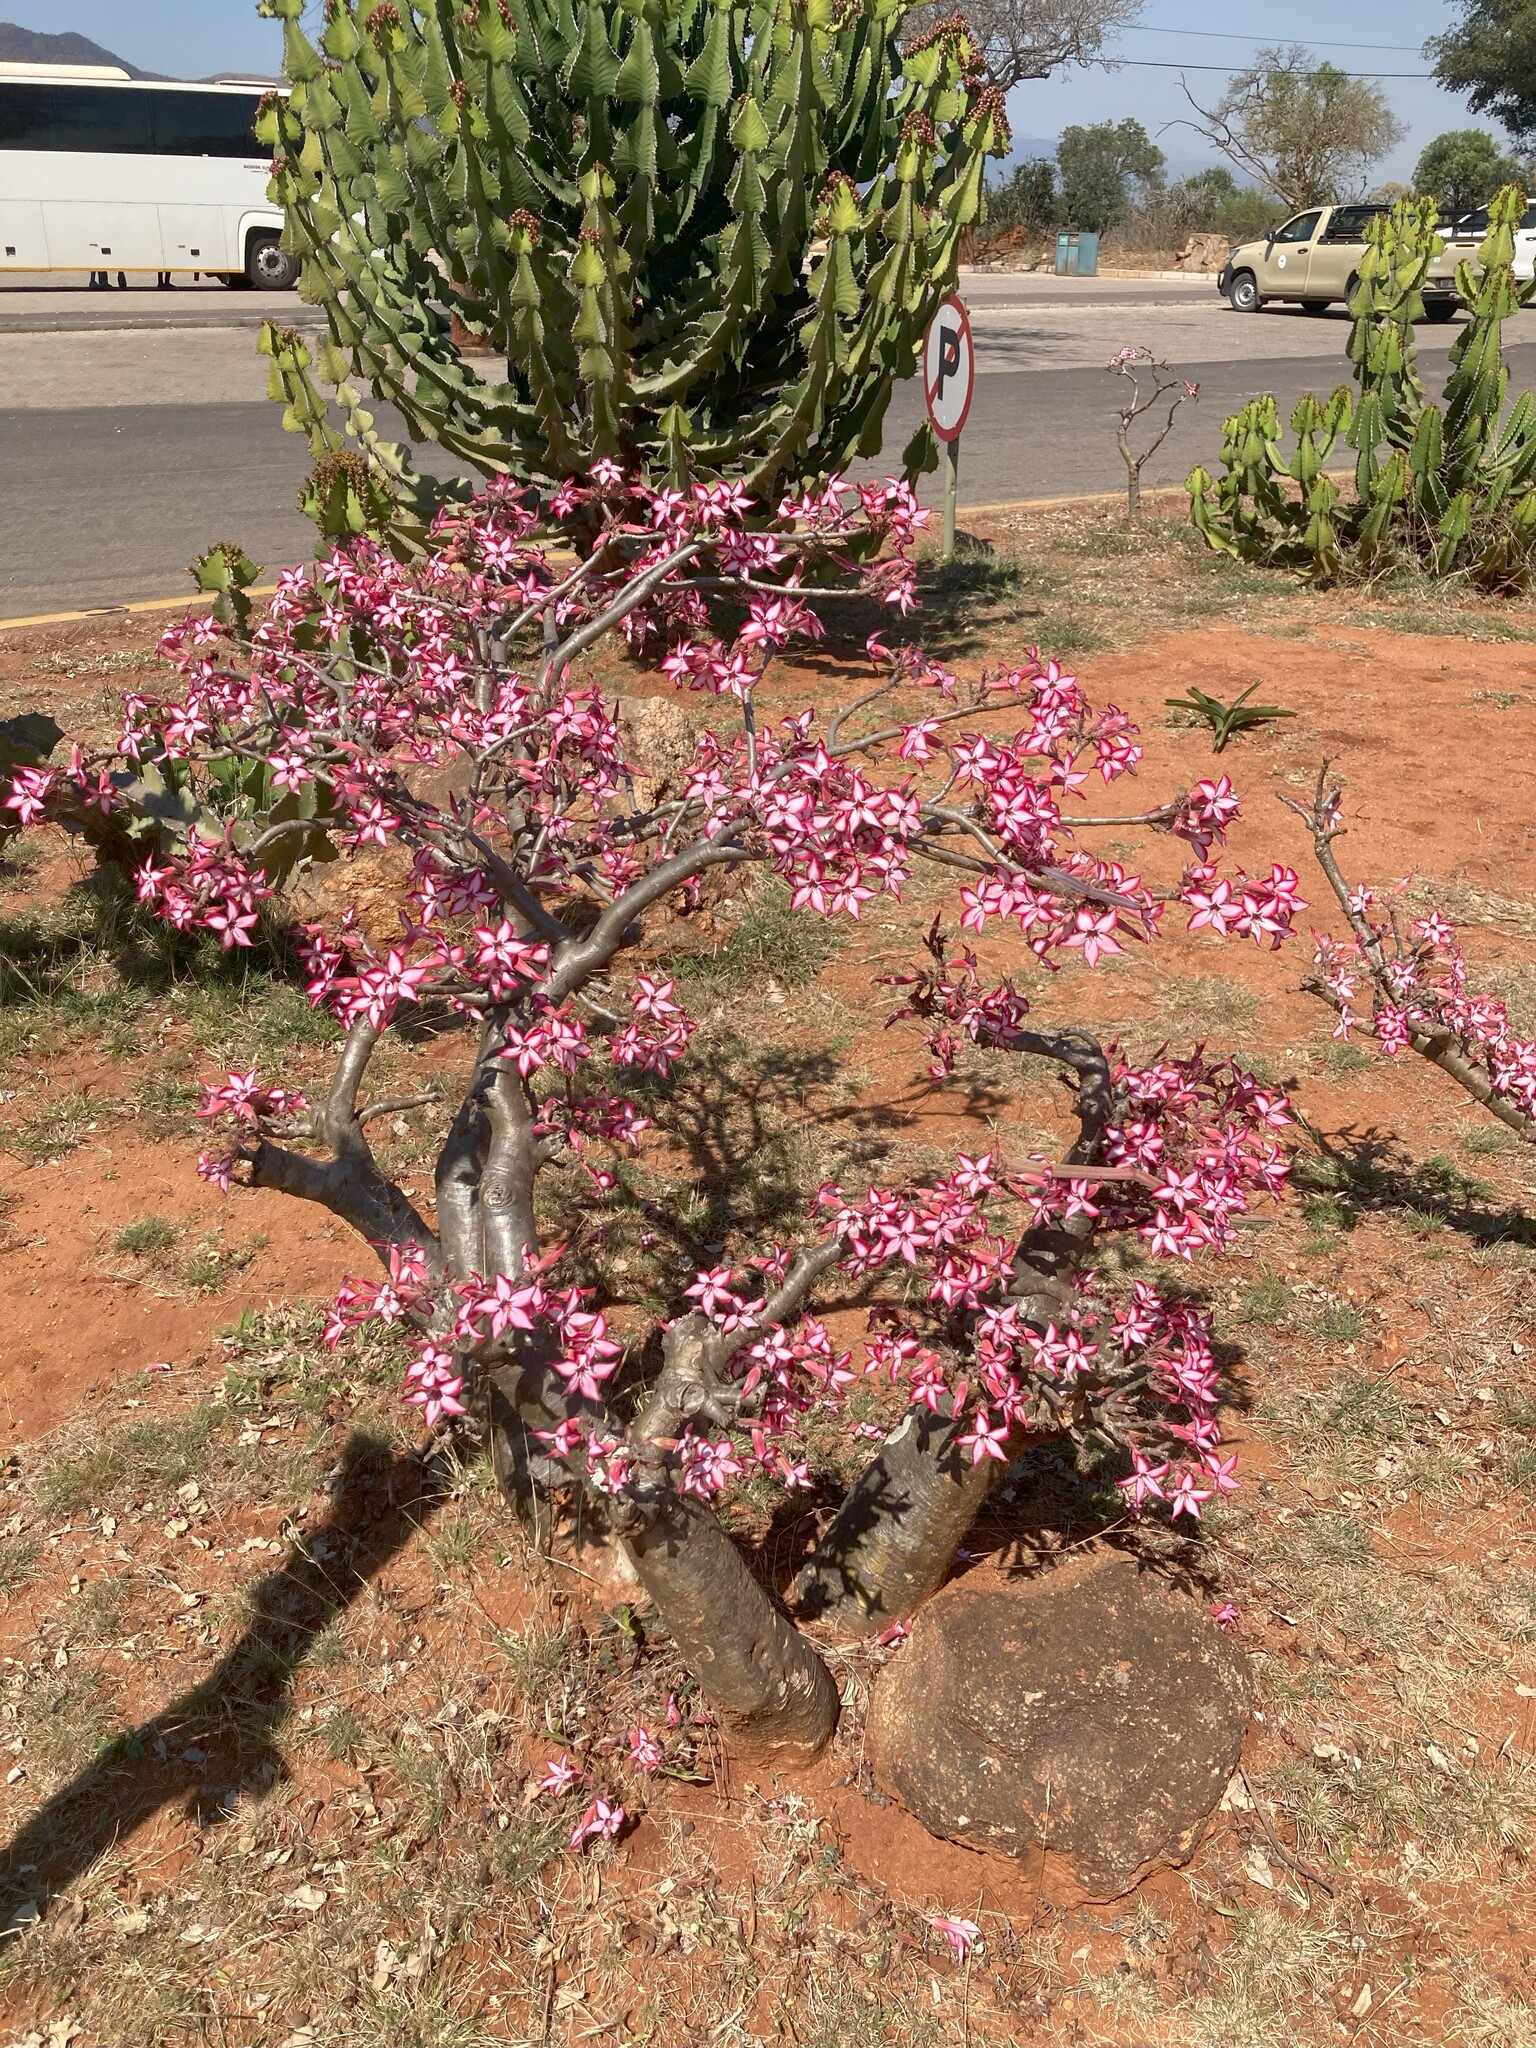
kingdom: Plantae
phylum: Tracheophyta
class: Magnoliopsida
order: Gentianales
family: Apocynaceae
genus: Adenium
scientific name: Adenium obesum
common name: Desert-rose
